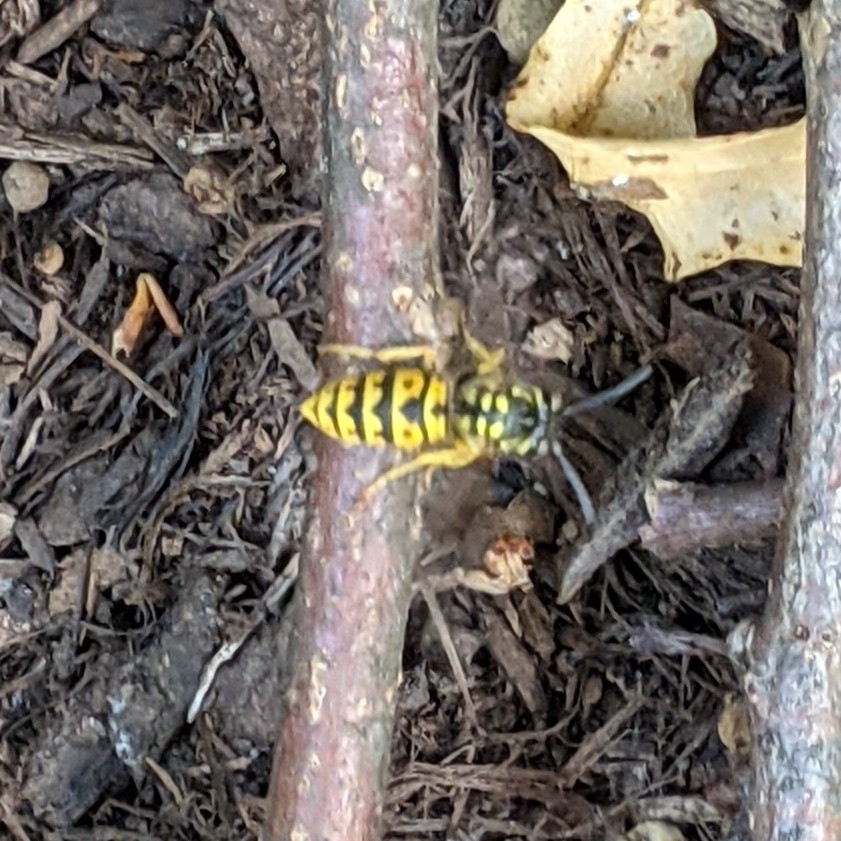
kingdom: Animalia
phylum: Arthropoda
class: Insecta
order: Hymenoptera
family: Vespidae
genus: Vespula
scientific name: Vespula germanica
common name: German wasp
